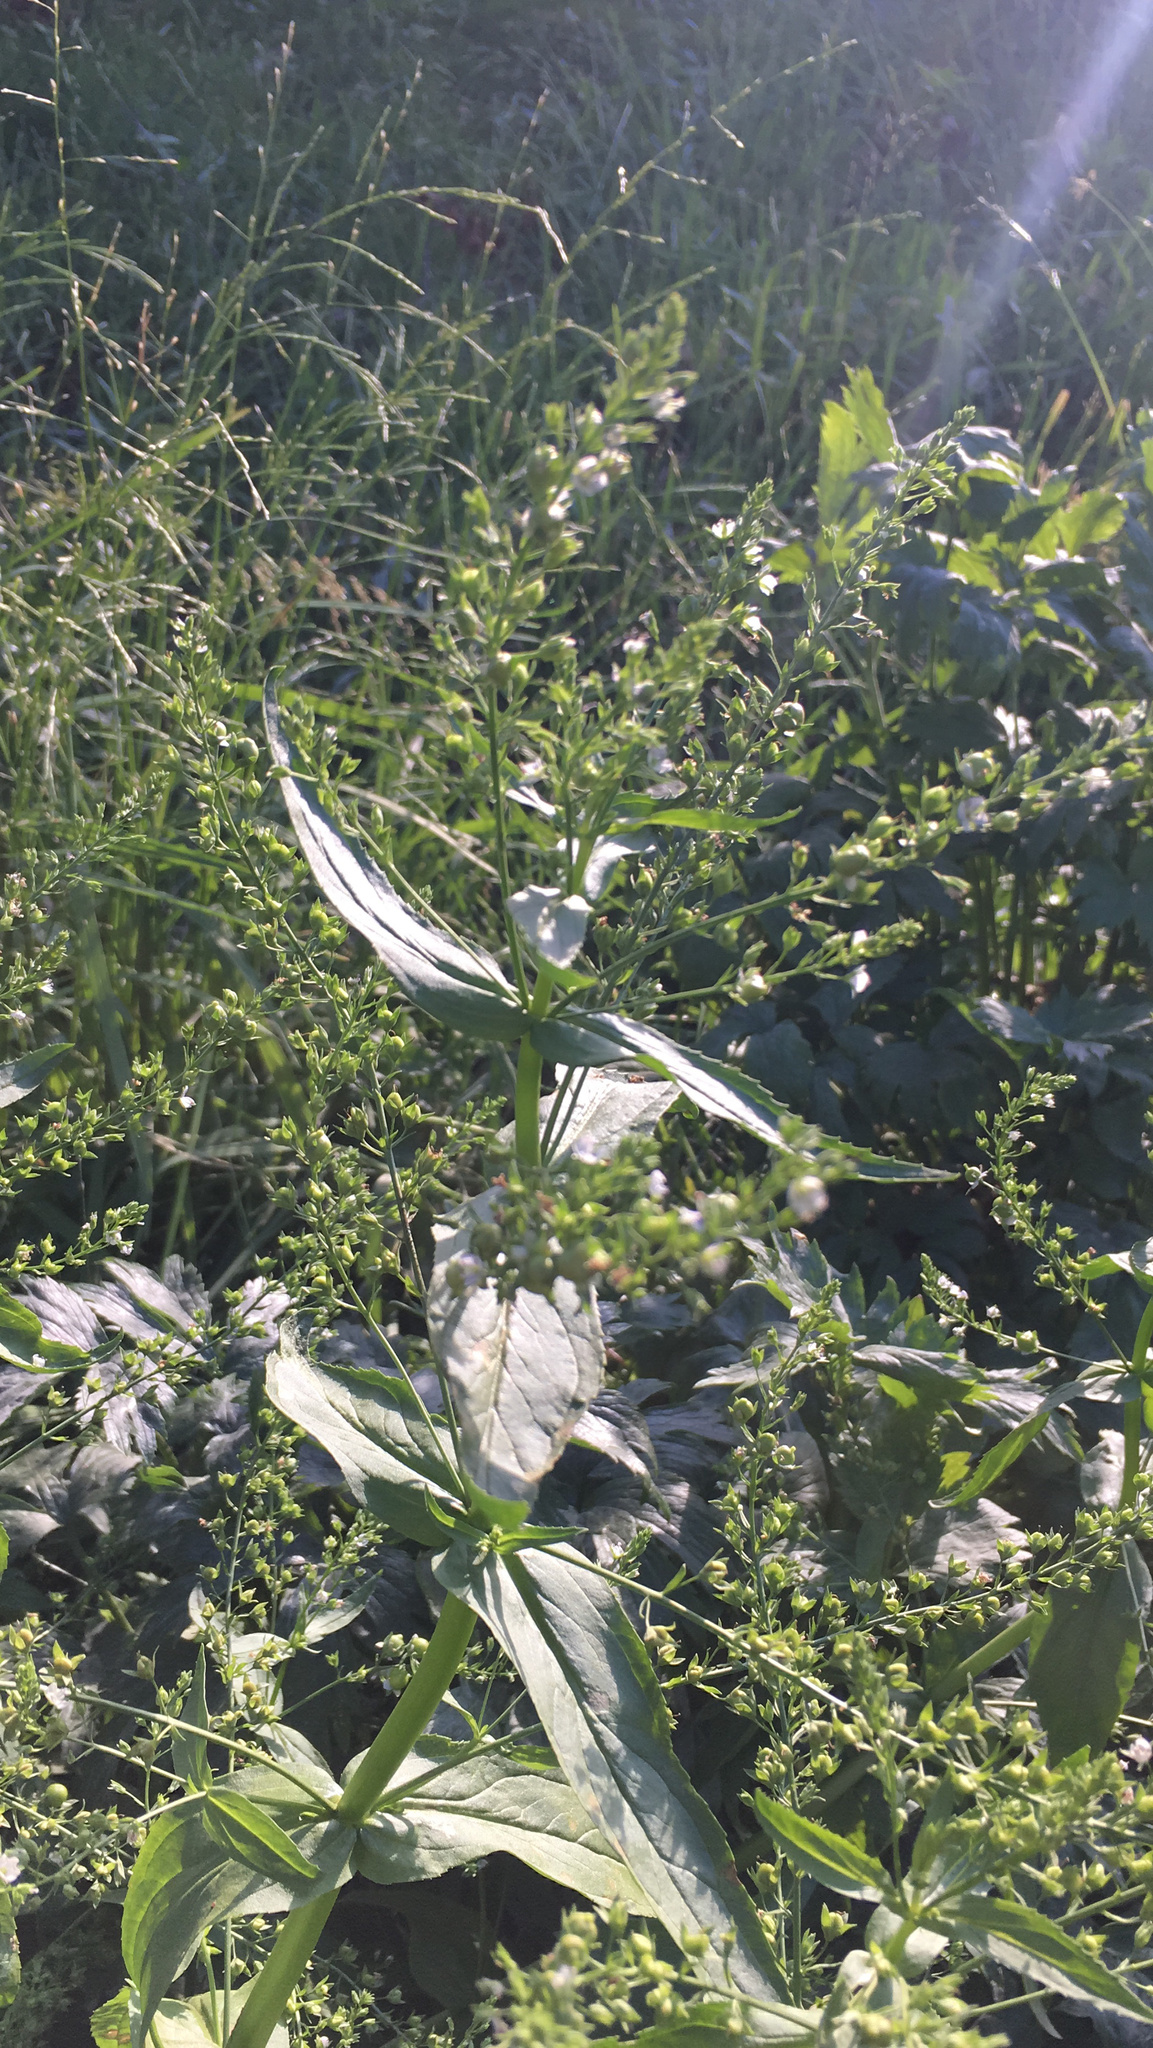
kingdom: Plantae
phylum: Tracheophyta
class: Magnoliopsida
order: Lamiales
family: Plantaginaceae
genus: Veronica
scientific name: Veronica anagallis-aquatica
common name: Water speedwell
